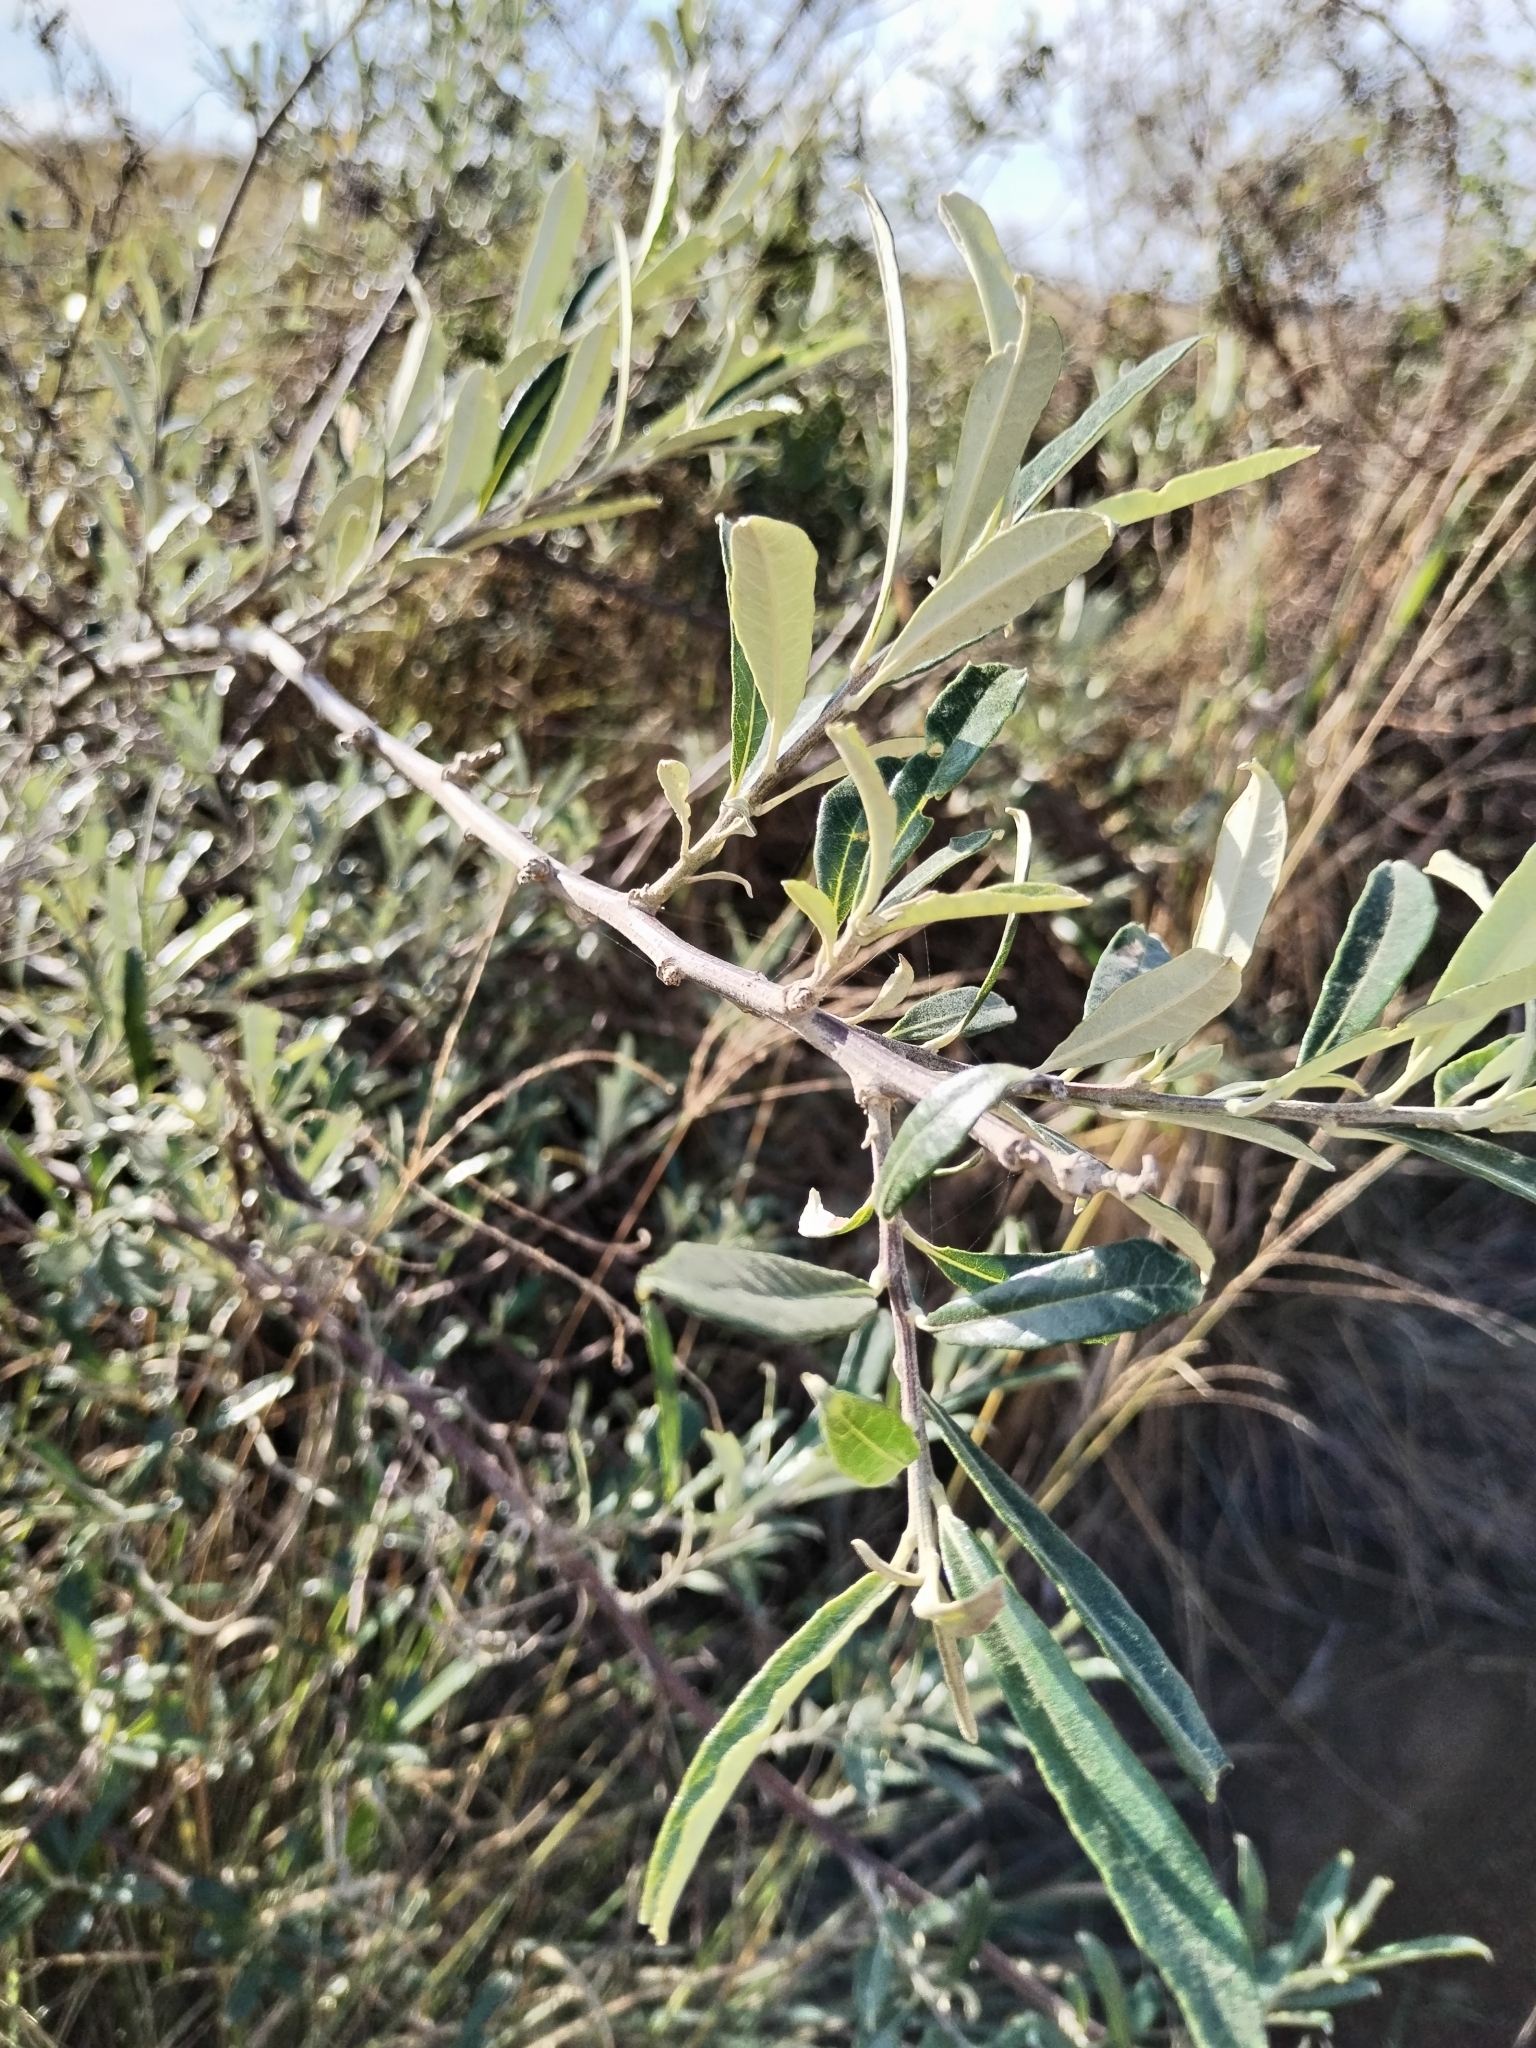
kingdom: Plantae
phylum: Tracheophyta
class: Magnoliopsida
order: Asterales
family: Asteraceae
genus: Brachylaena
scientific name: Brachylaena elliptica
